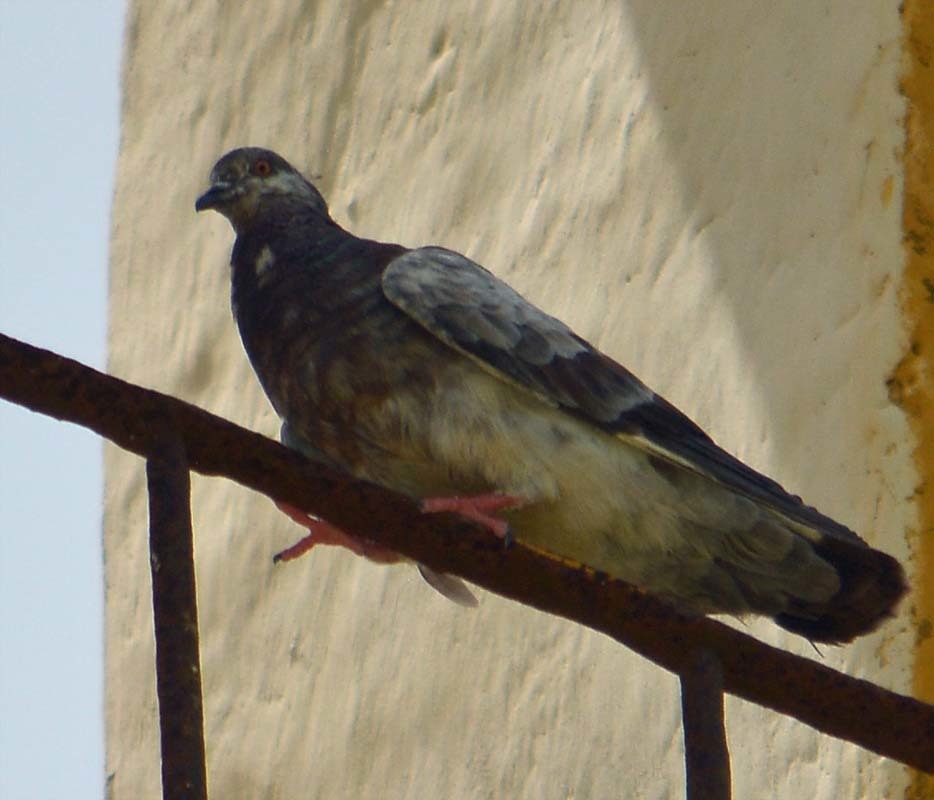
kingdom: Animalia
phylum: Chordata
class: Aves
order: Columbiformes
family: Columbidae
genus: Columba
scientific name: Columba livia
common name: Rock pigeon
